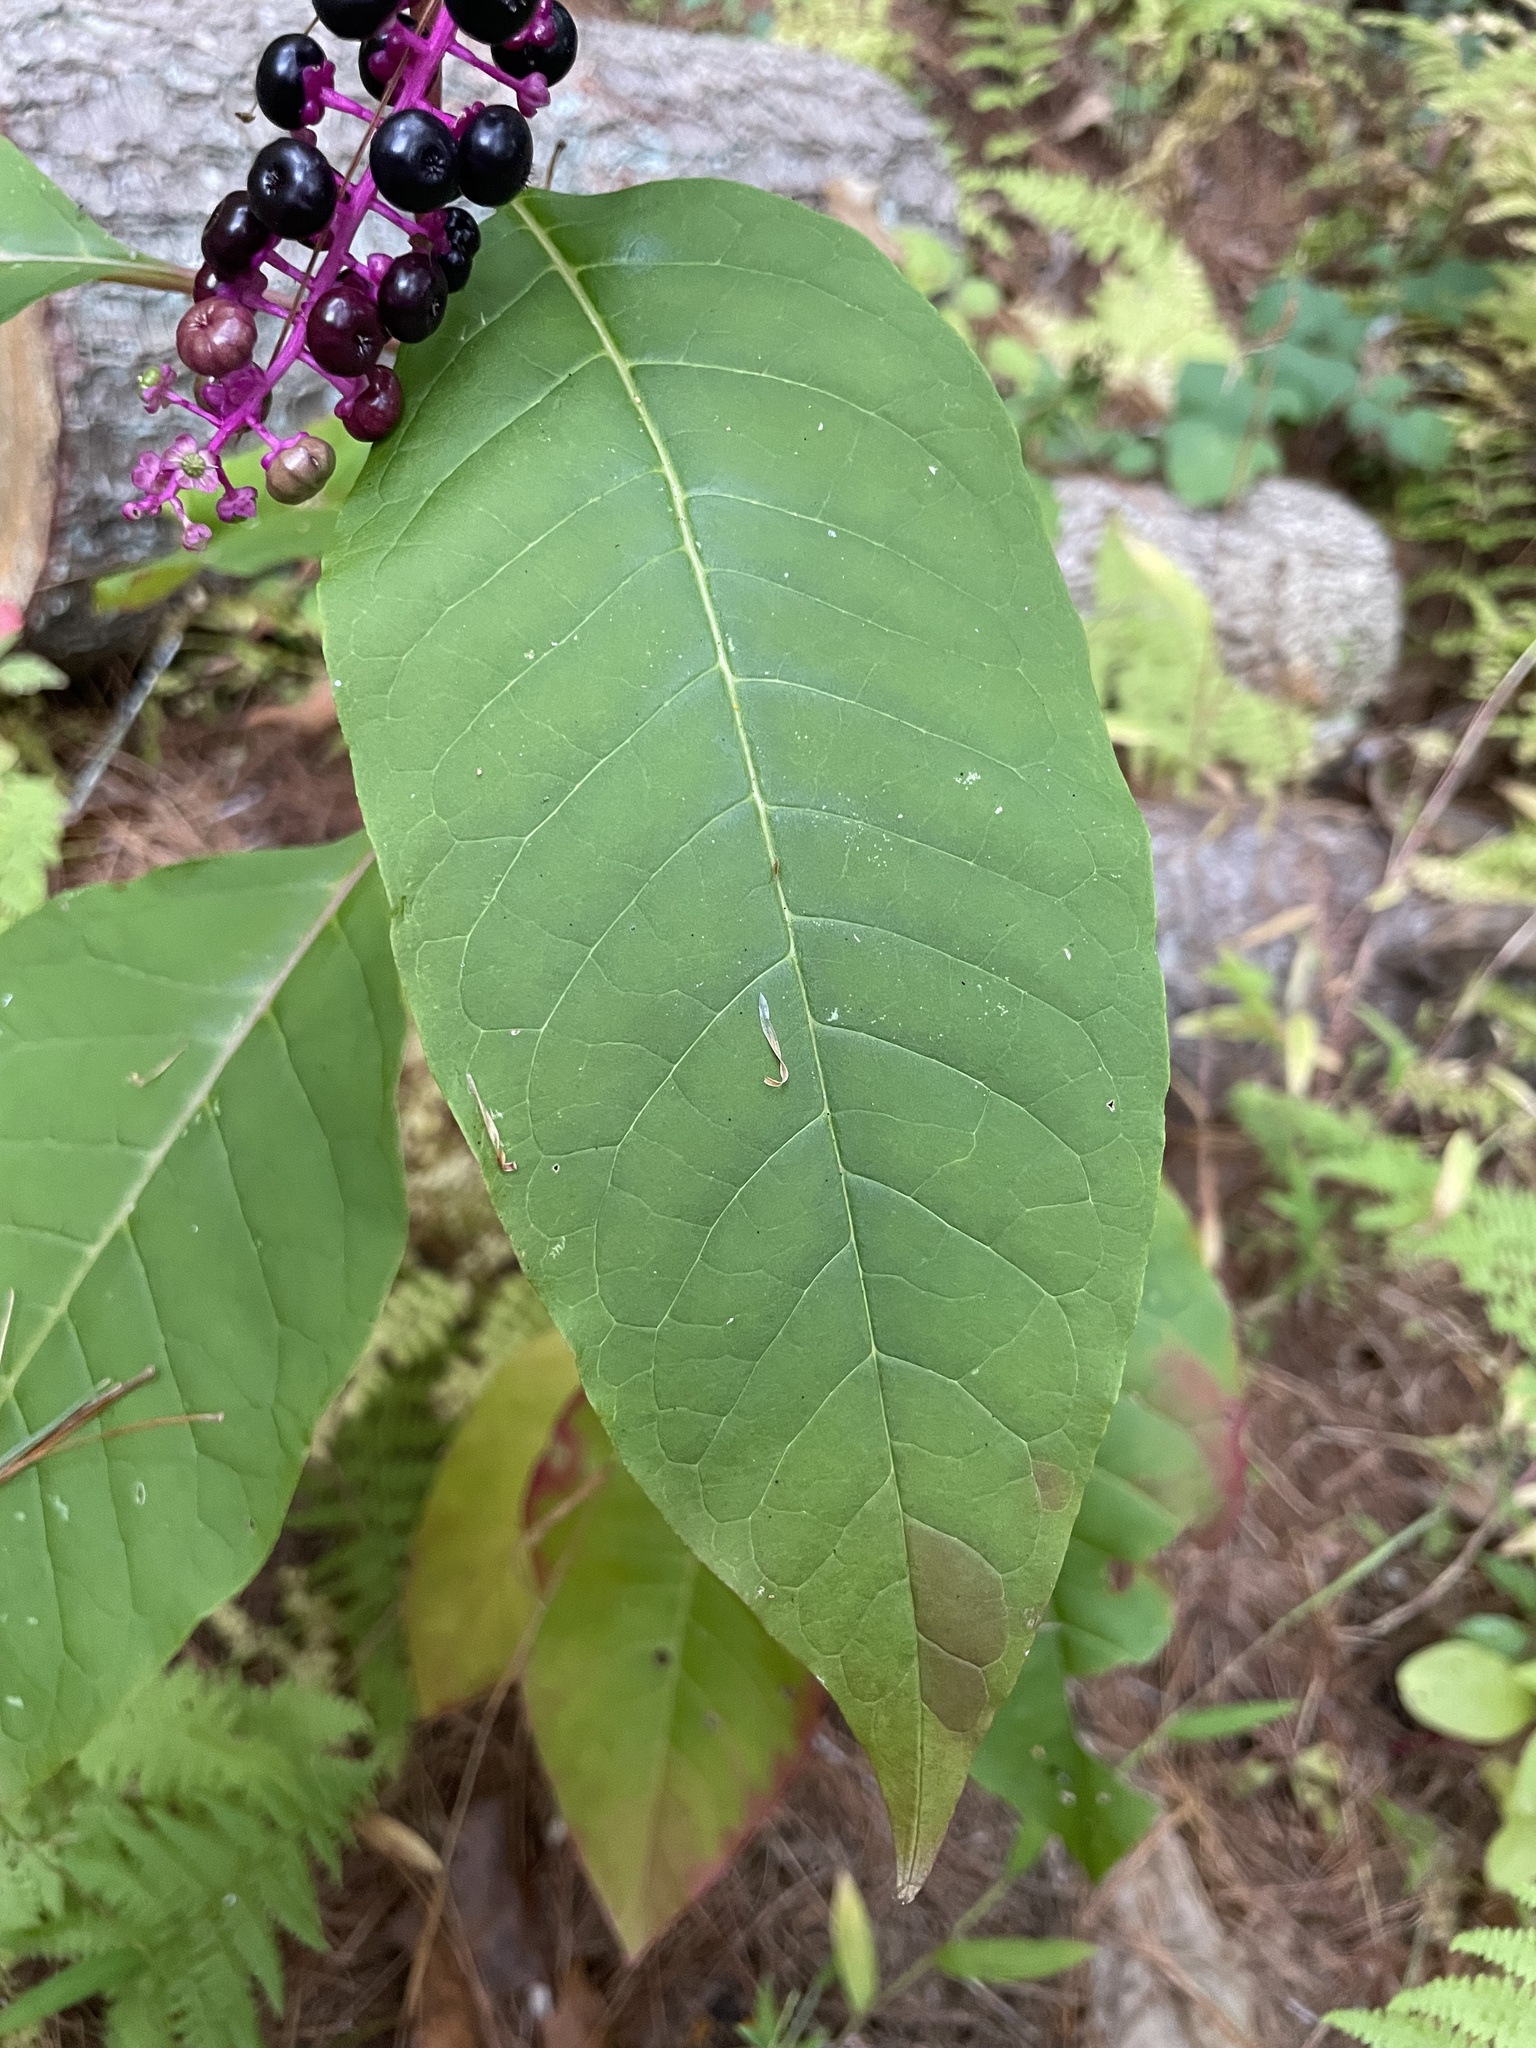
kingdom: Plantae
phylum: Tracheophyta
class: Magnoliopsida
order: Caryophyllales
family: Phytolaccaceae
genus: Phytolacca
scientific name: Phytolacca americana
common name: American pokeweed
